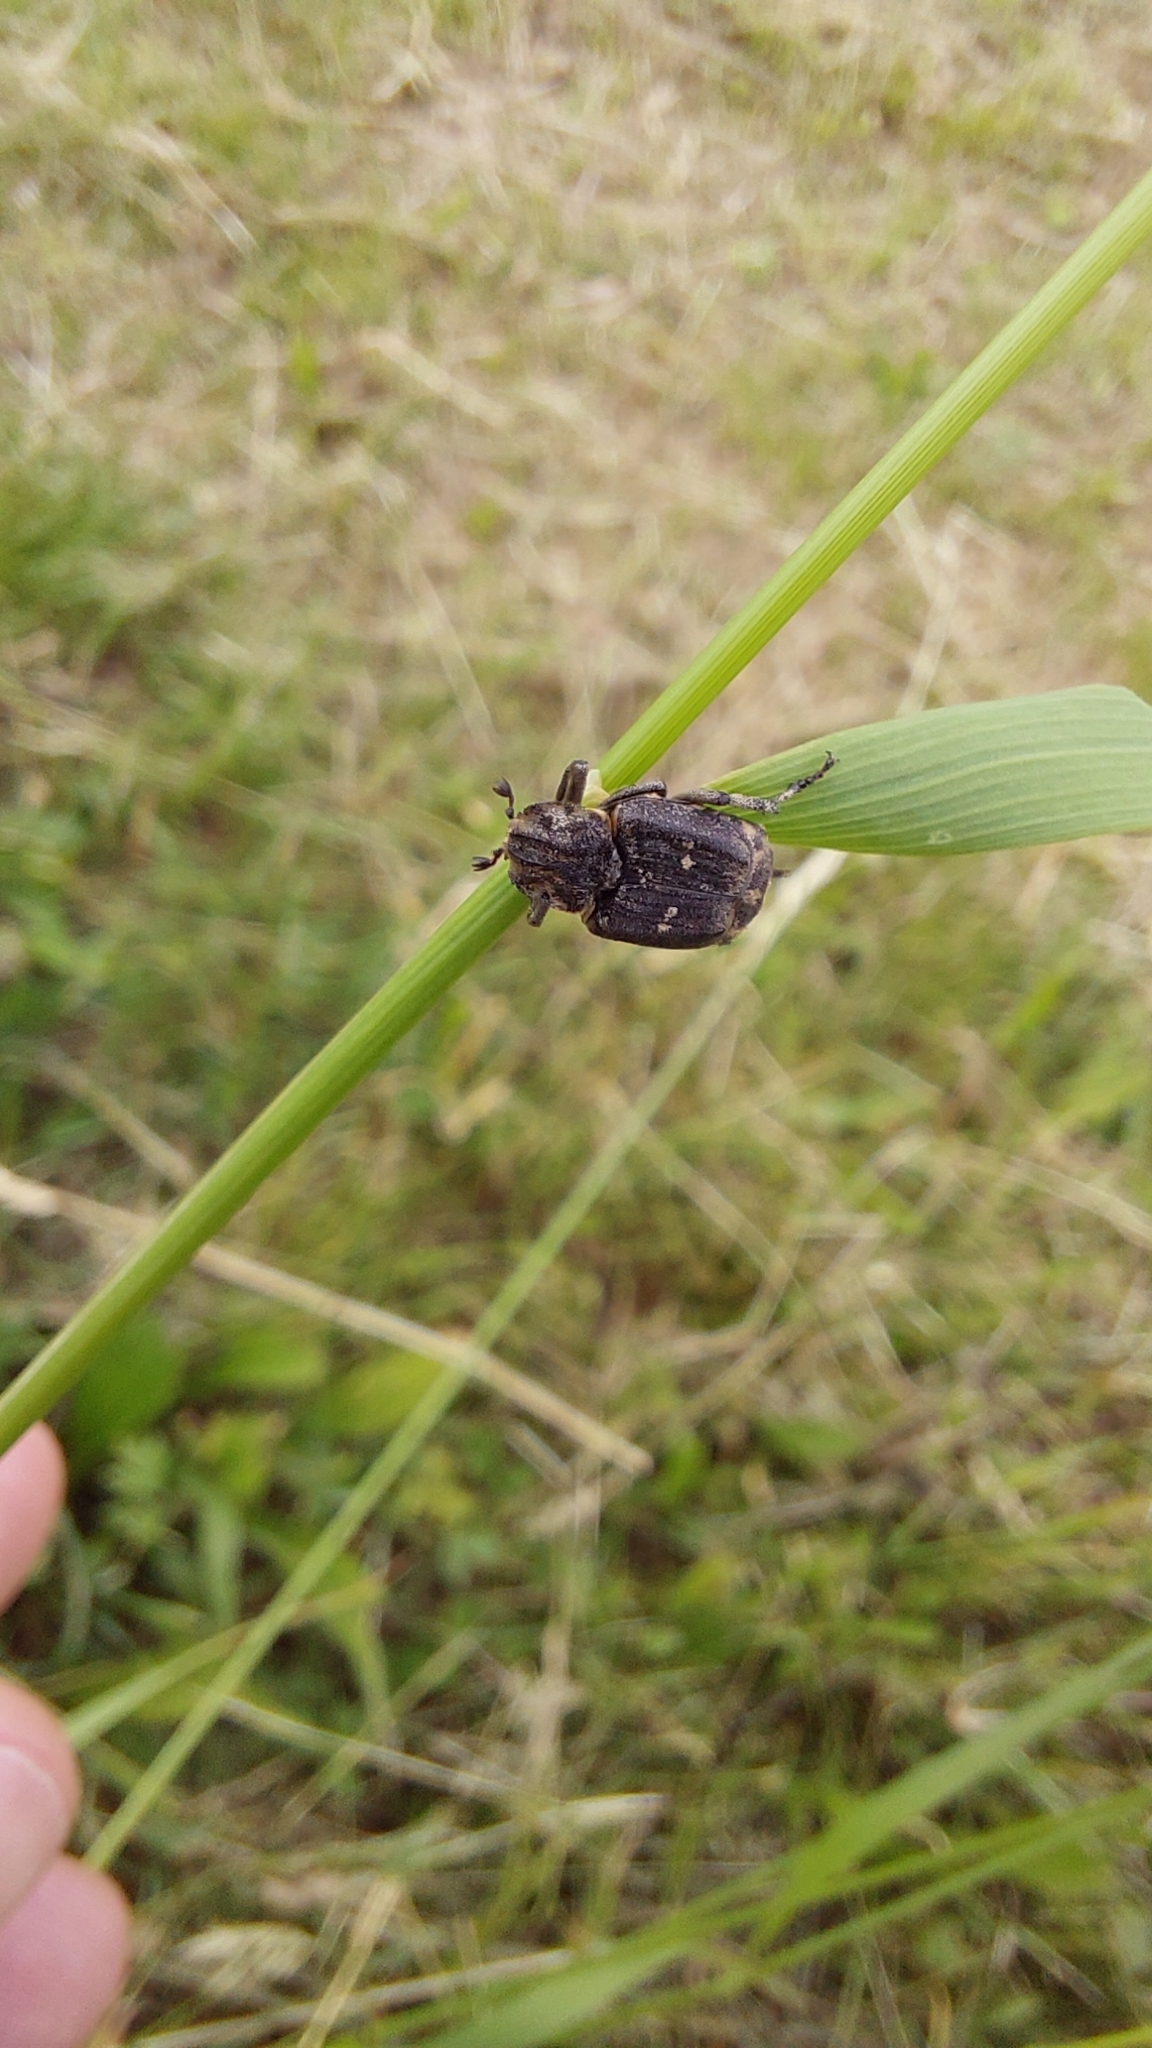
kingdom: Animalia
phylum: Arthropoda
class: Insecta
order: Coleoptera
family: Scarabaeidae
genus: Valgus
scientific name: Valgus hemipterus
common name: Bug flower chafer
